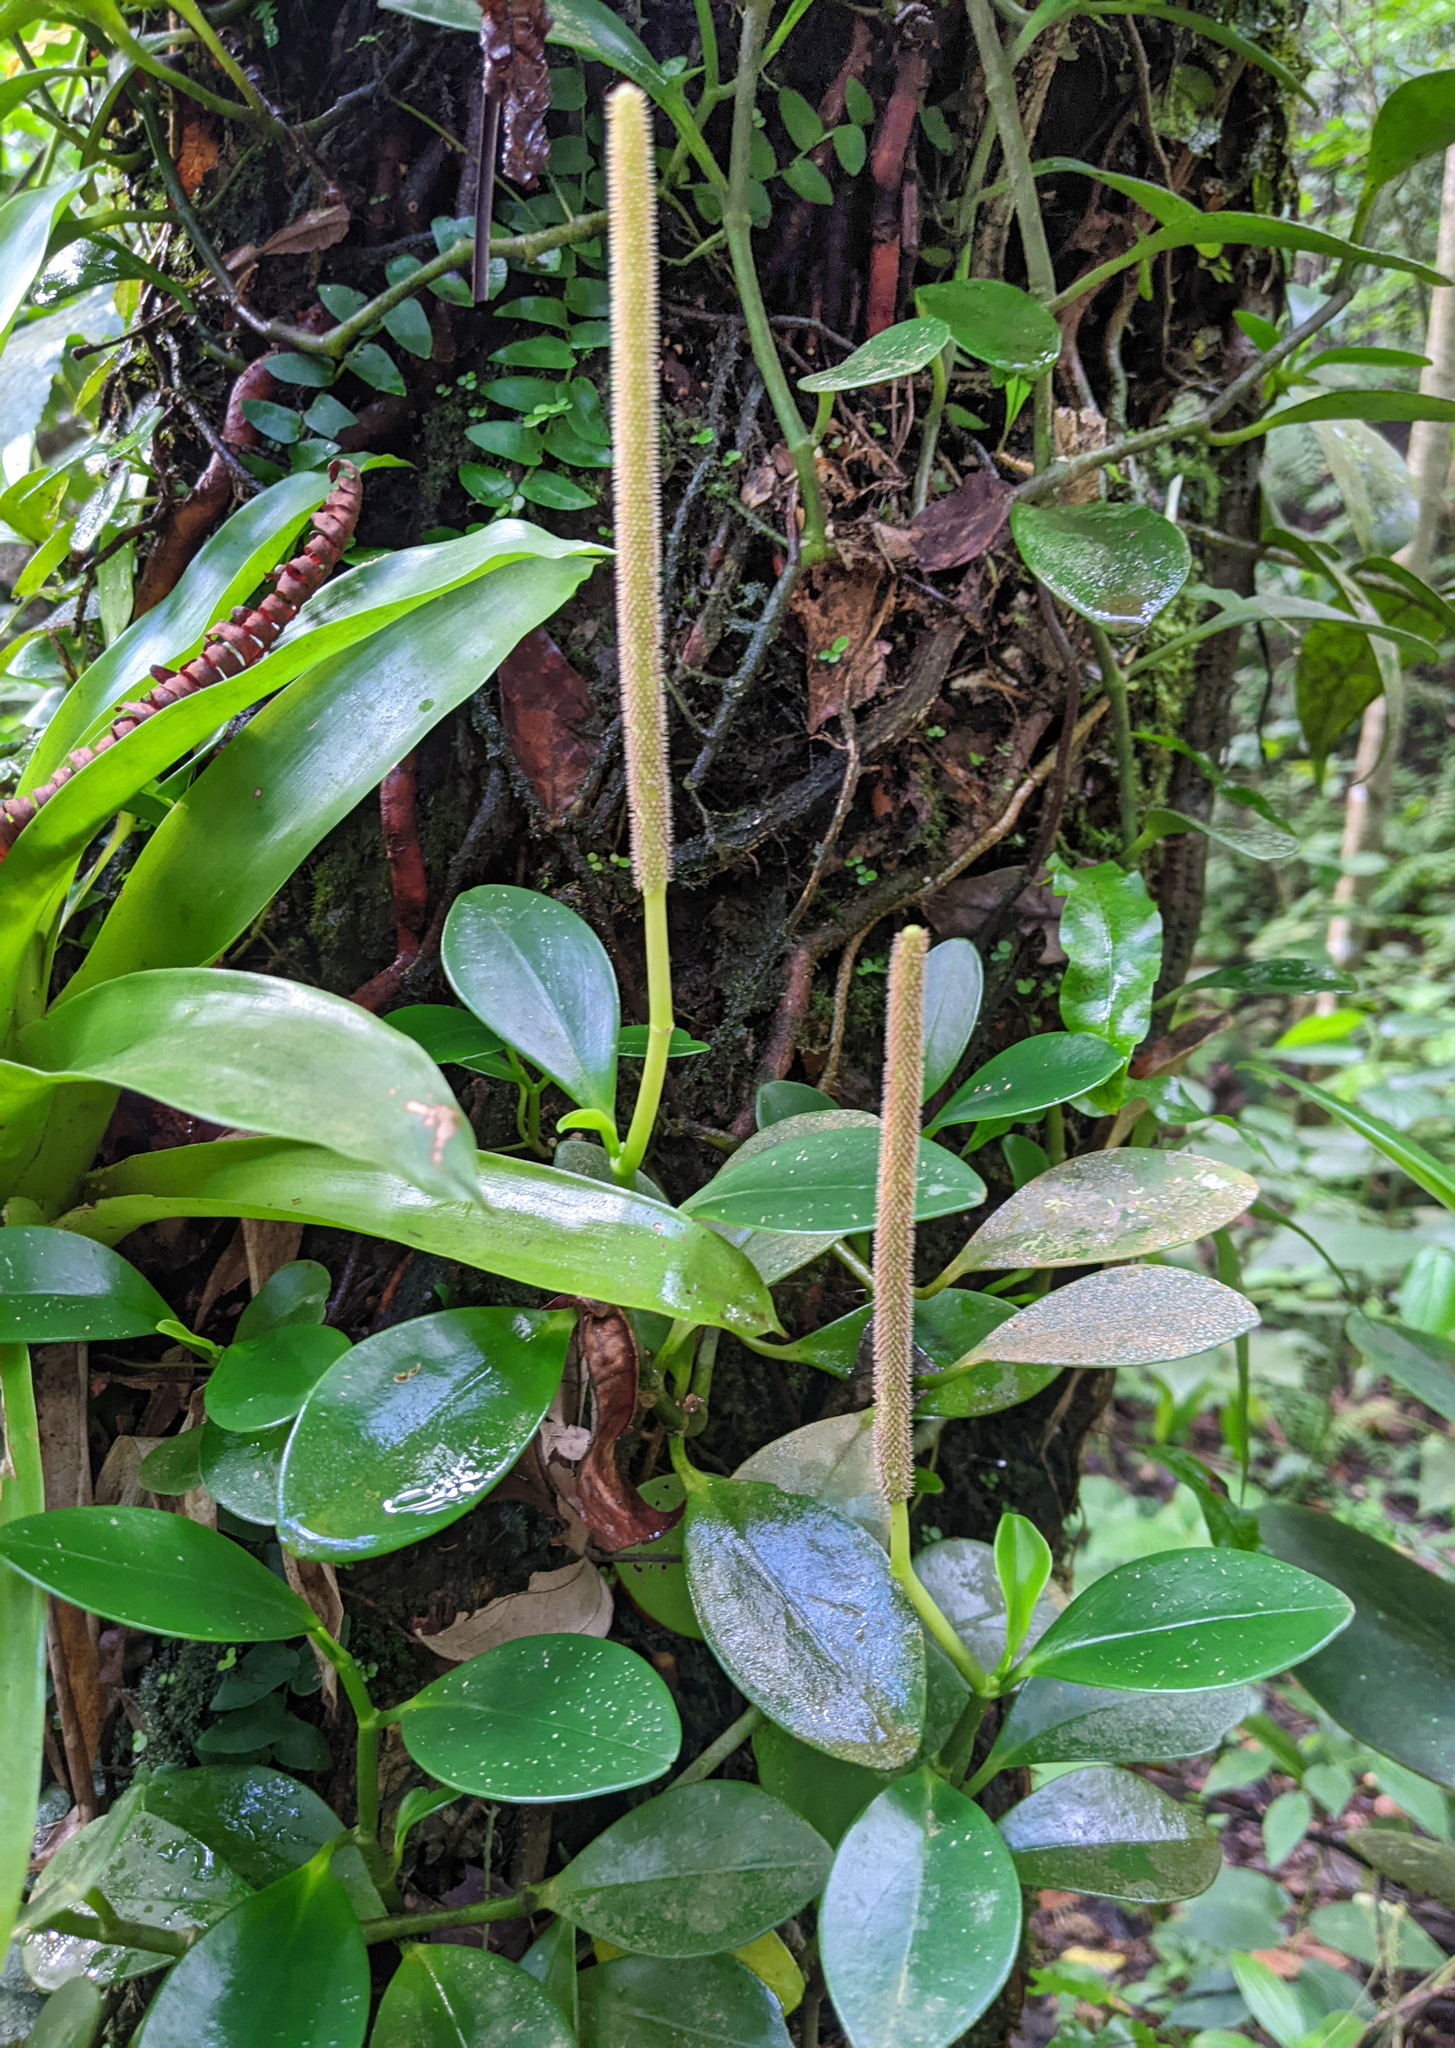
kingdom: Plantae
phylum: Tracheophyta
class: Magnoliopsida
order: Piperales
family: Piperaceae
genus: Peperomia
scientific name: Peperomia obtusifolia
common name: Baby rubberplant
